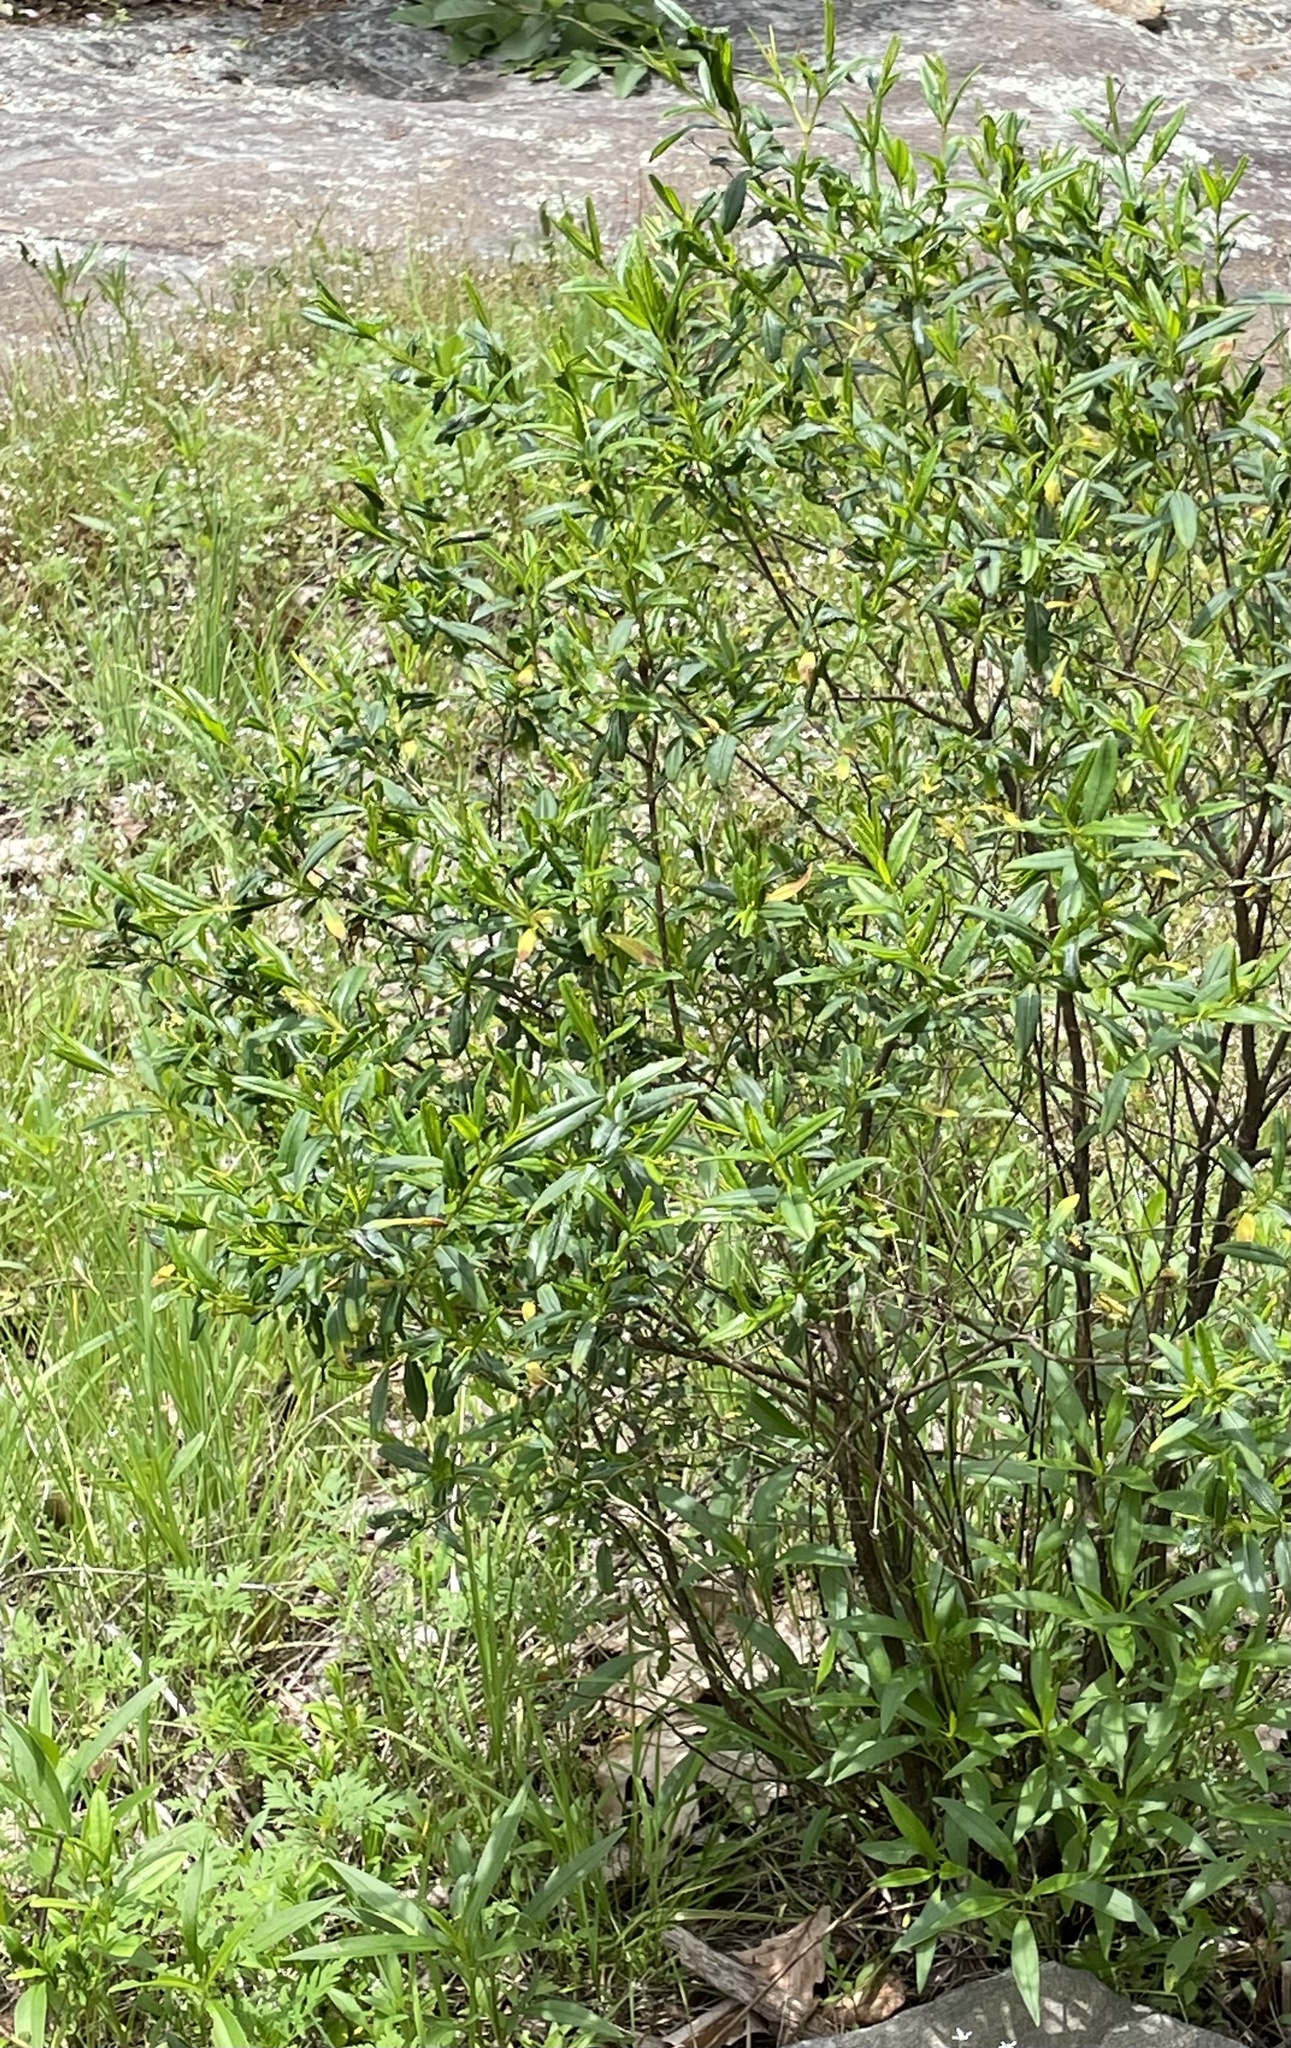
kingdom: Plantae
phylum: Tracheophyta
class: Magnoliopsida
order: Malpighiales
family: Hypericaceae
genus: Hypericum
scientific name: Hypericum prolificum
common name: Shrubby st. john's-wort
